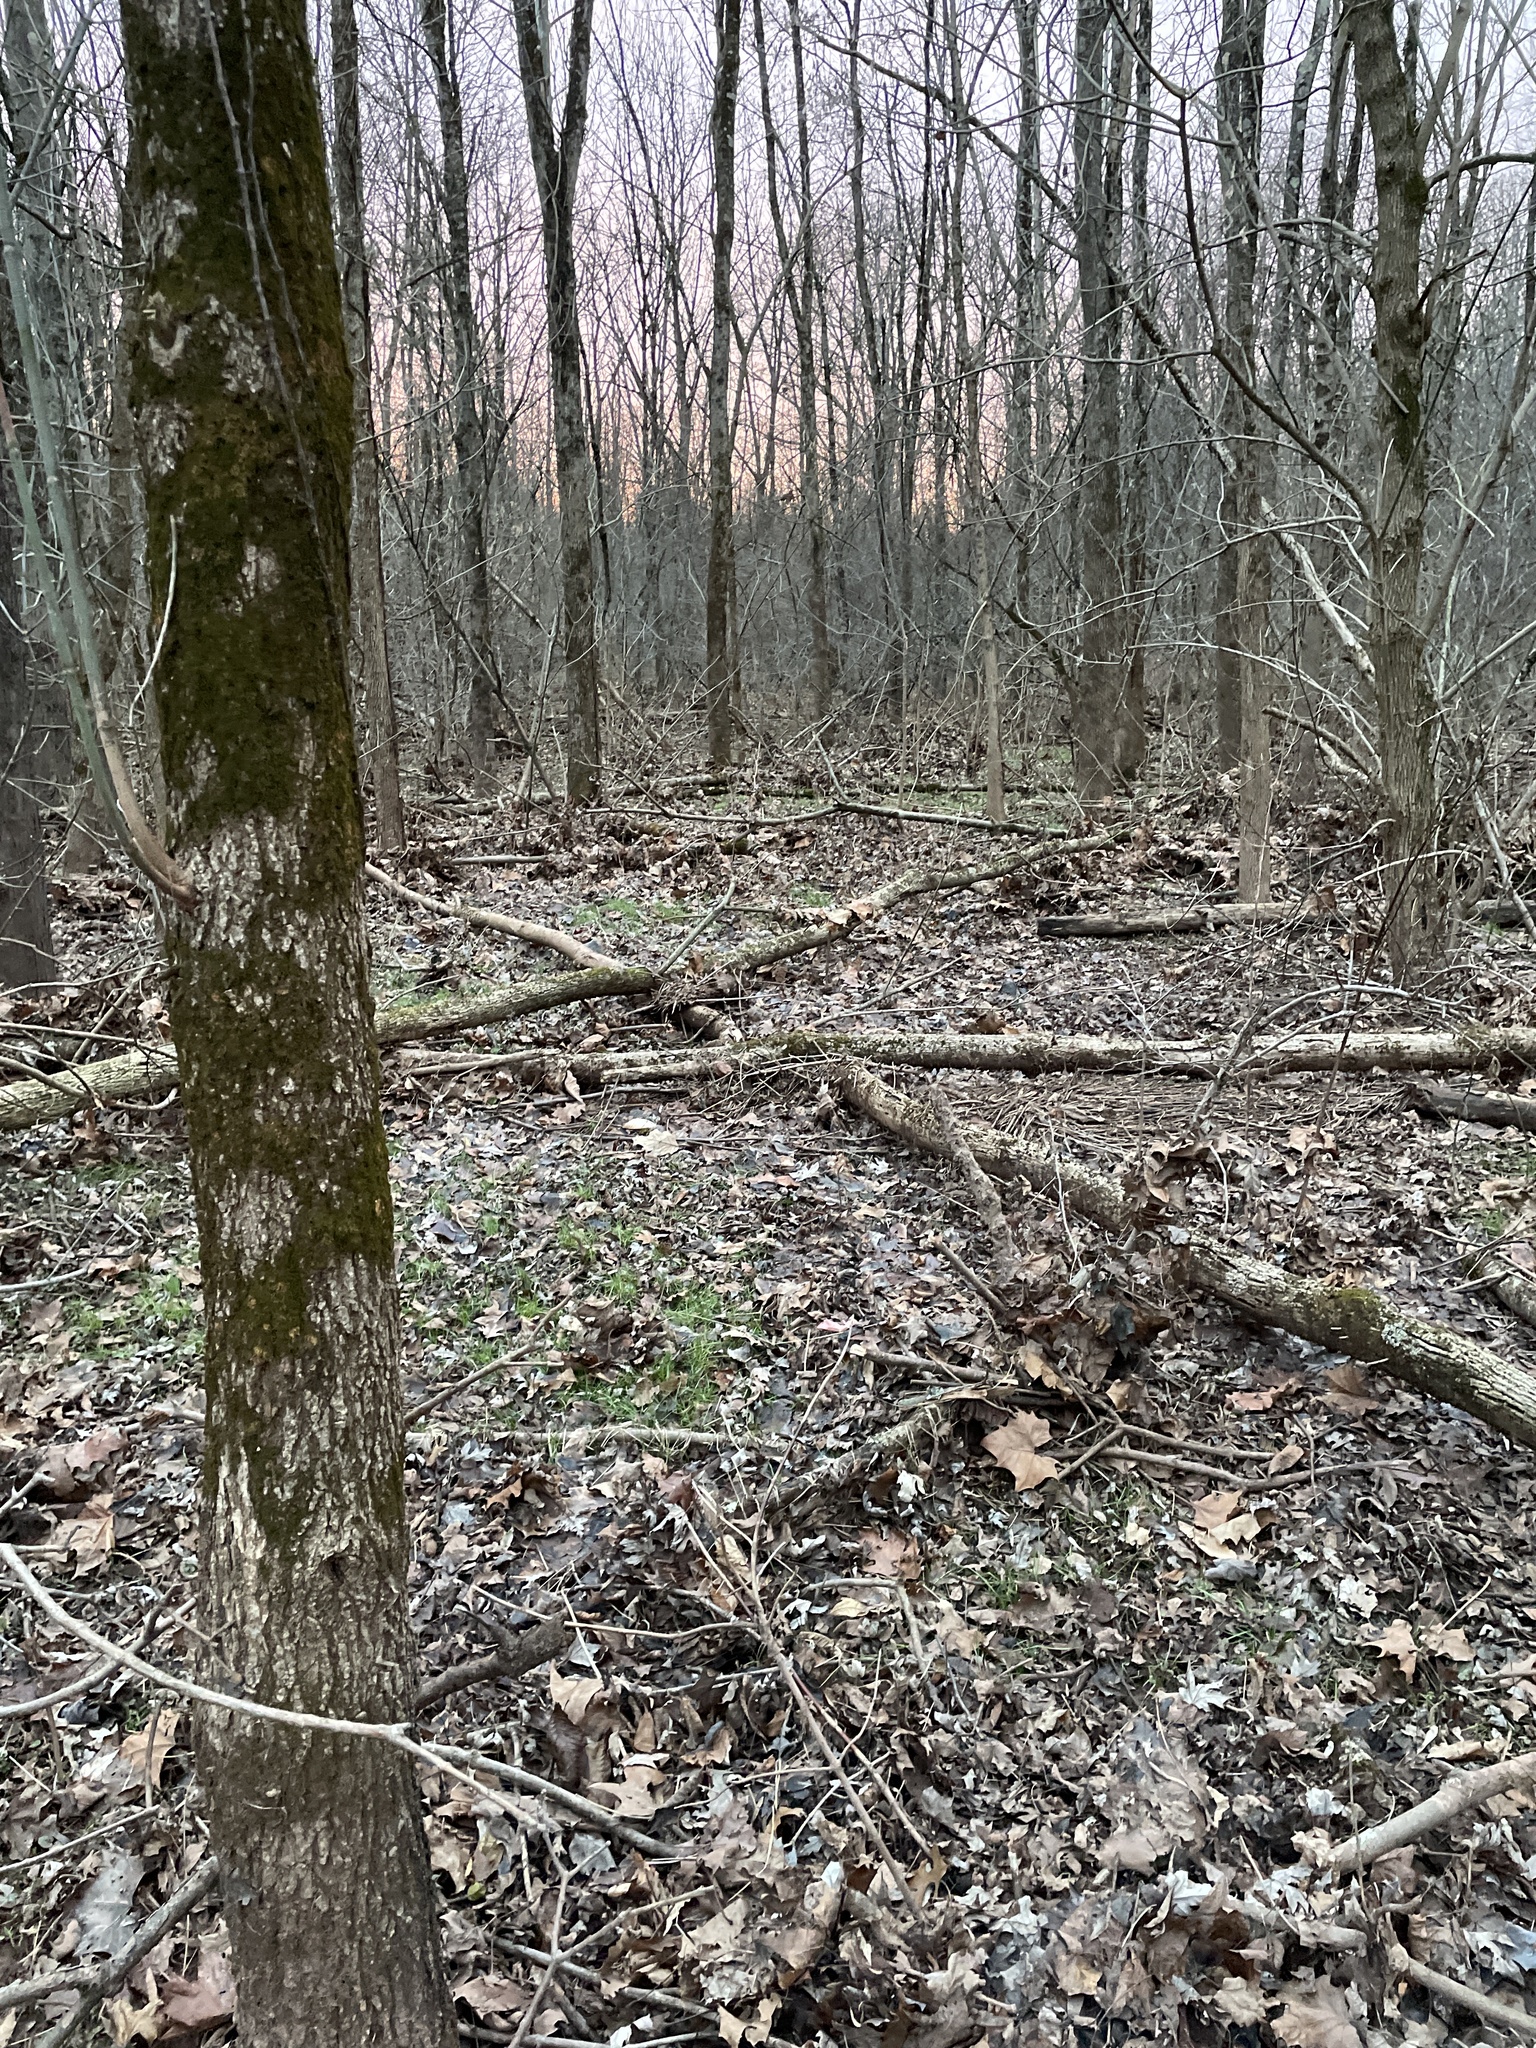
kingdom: Animalia
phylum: Arthropoda
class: Insecta
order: Coleoptera
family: Buprestidae
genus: Agrilus
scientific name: Agrilus planipennis
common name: Emerald ash borer
